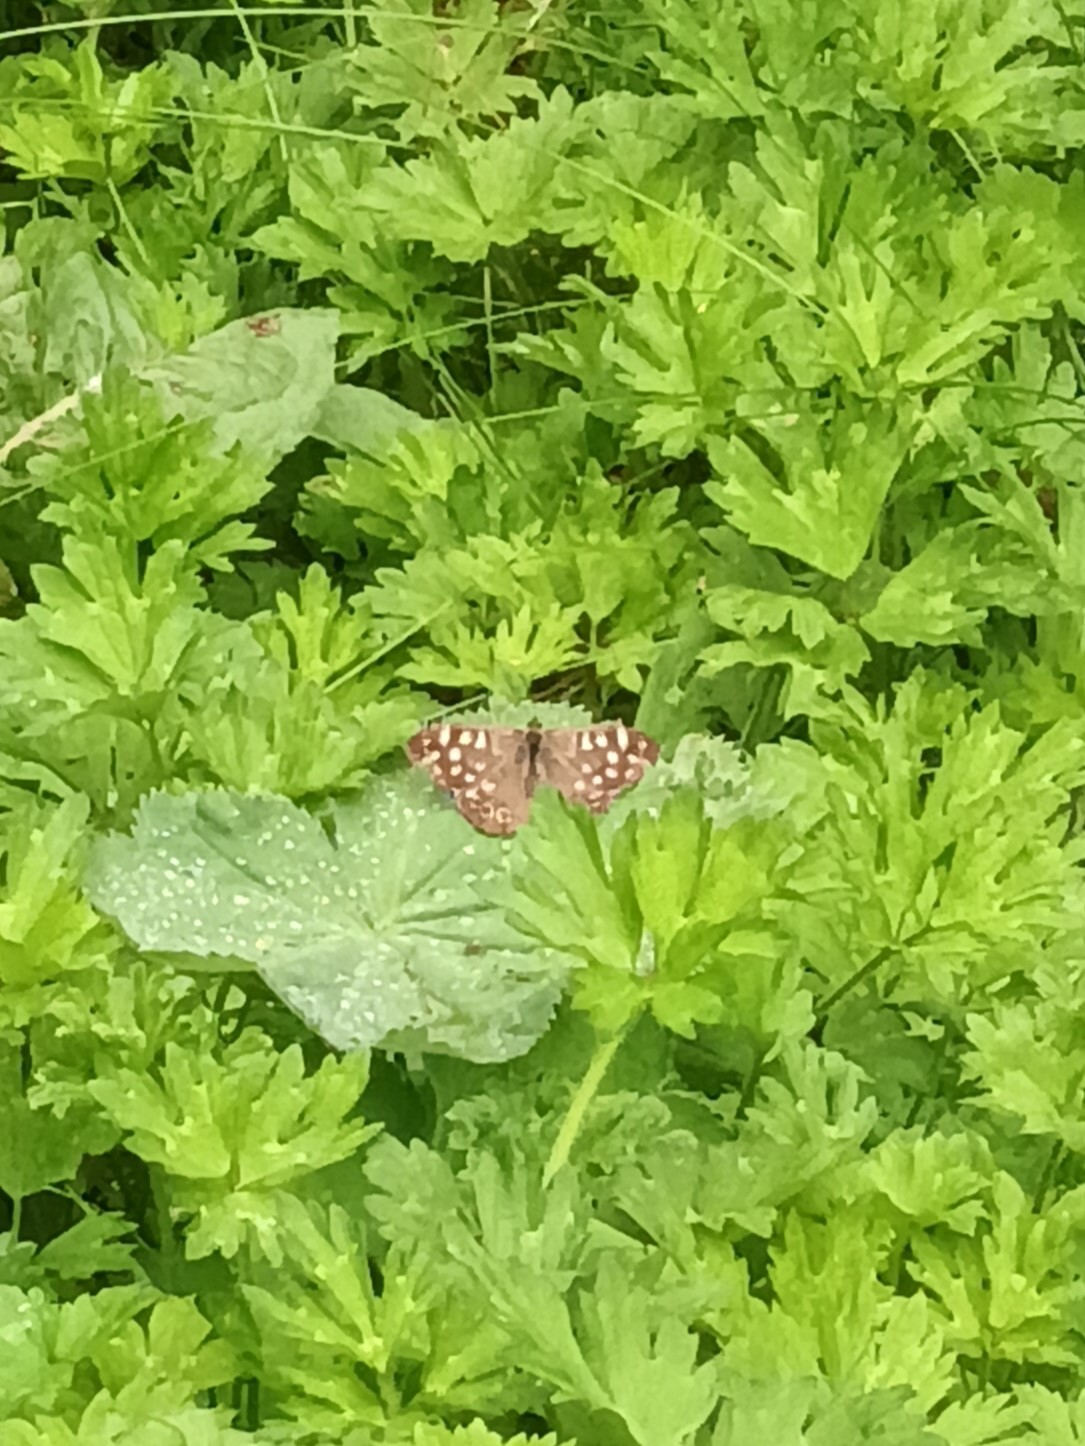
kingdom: Animalia
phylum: Arthropoda
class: Insecta
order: Lepidoptera
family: Nymphalidae
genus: Pararge
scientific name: Pararge aegeria
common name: Speckled wood
